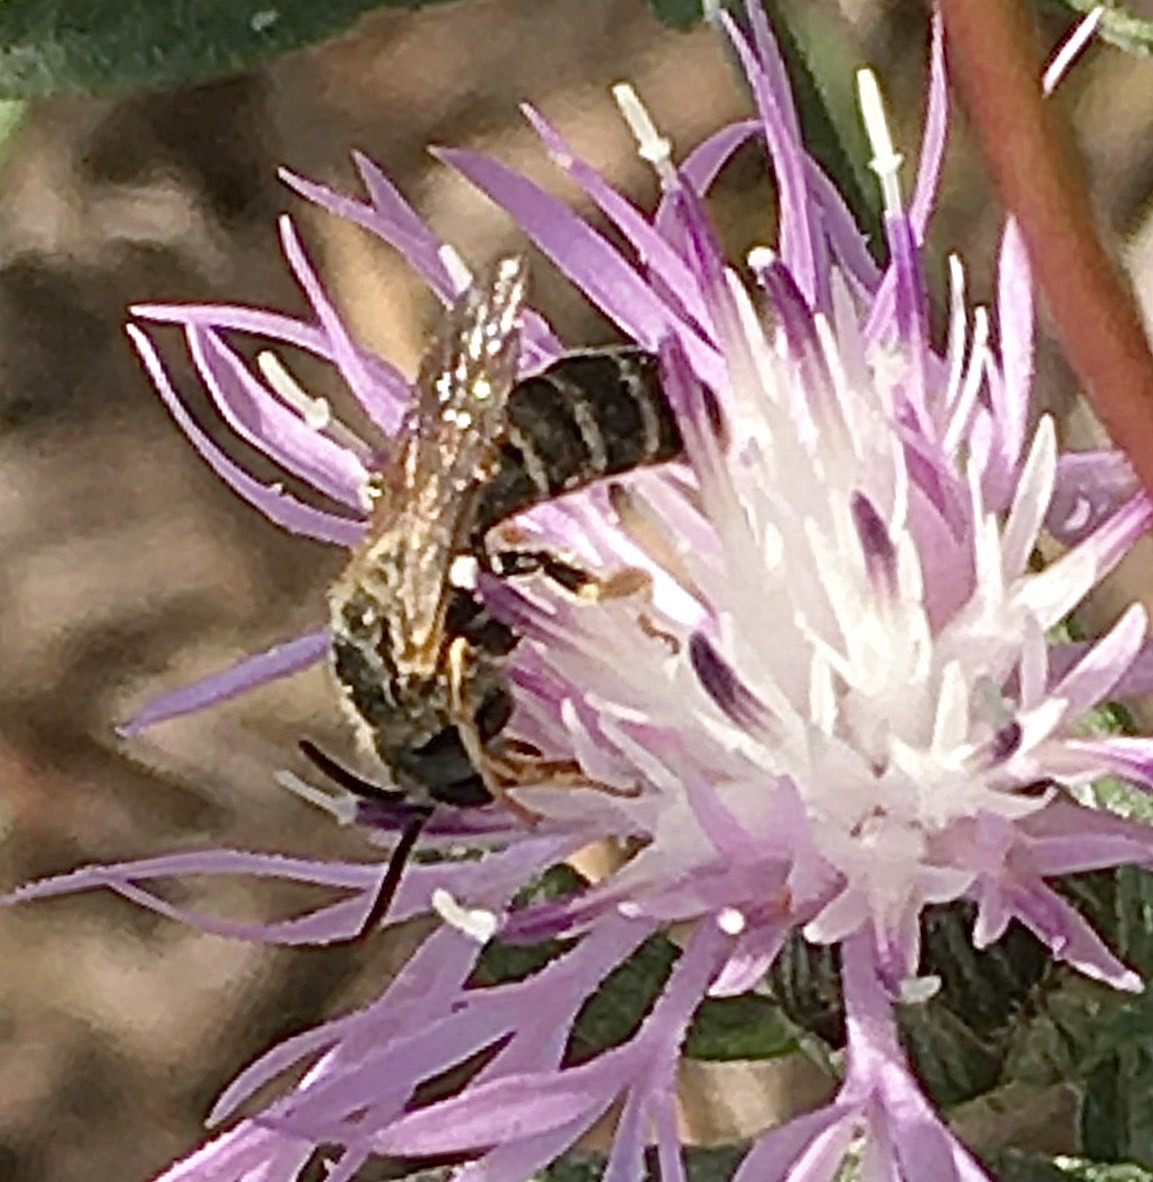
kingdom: Animalia
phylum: Arthropoda
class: Insecta
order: Hymenoptera
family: Halictidae
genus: Halictus
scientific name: Halictus confusus
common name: Southern bronze furrow bee
